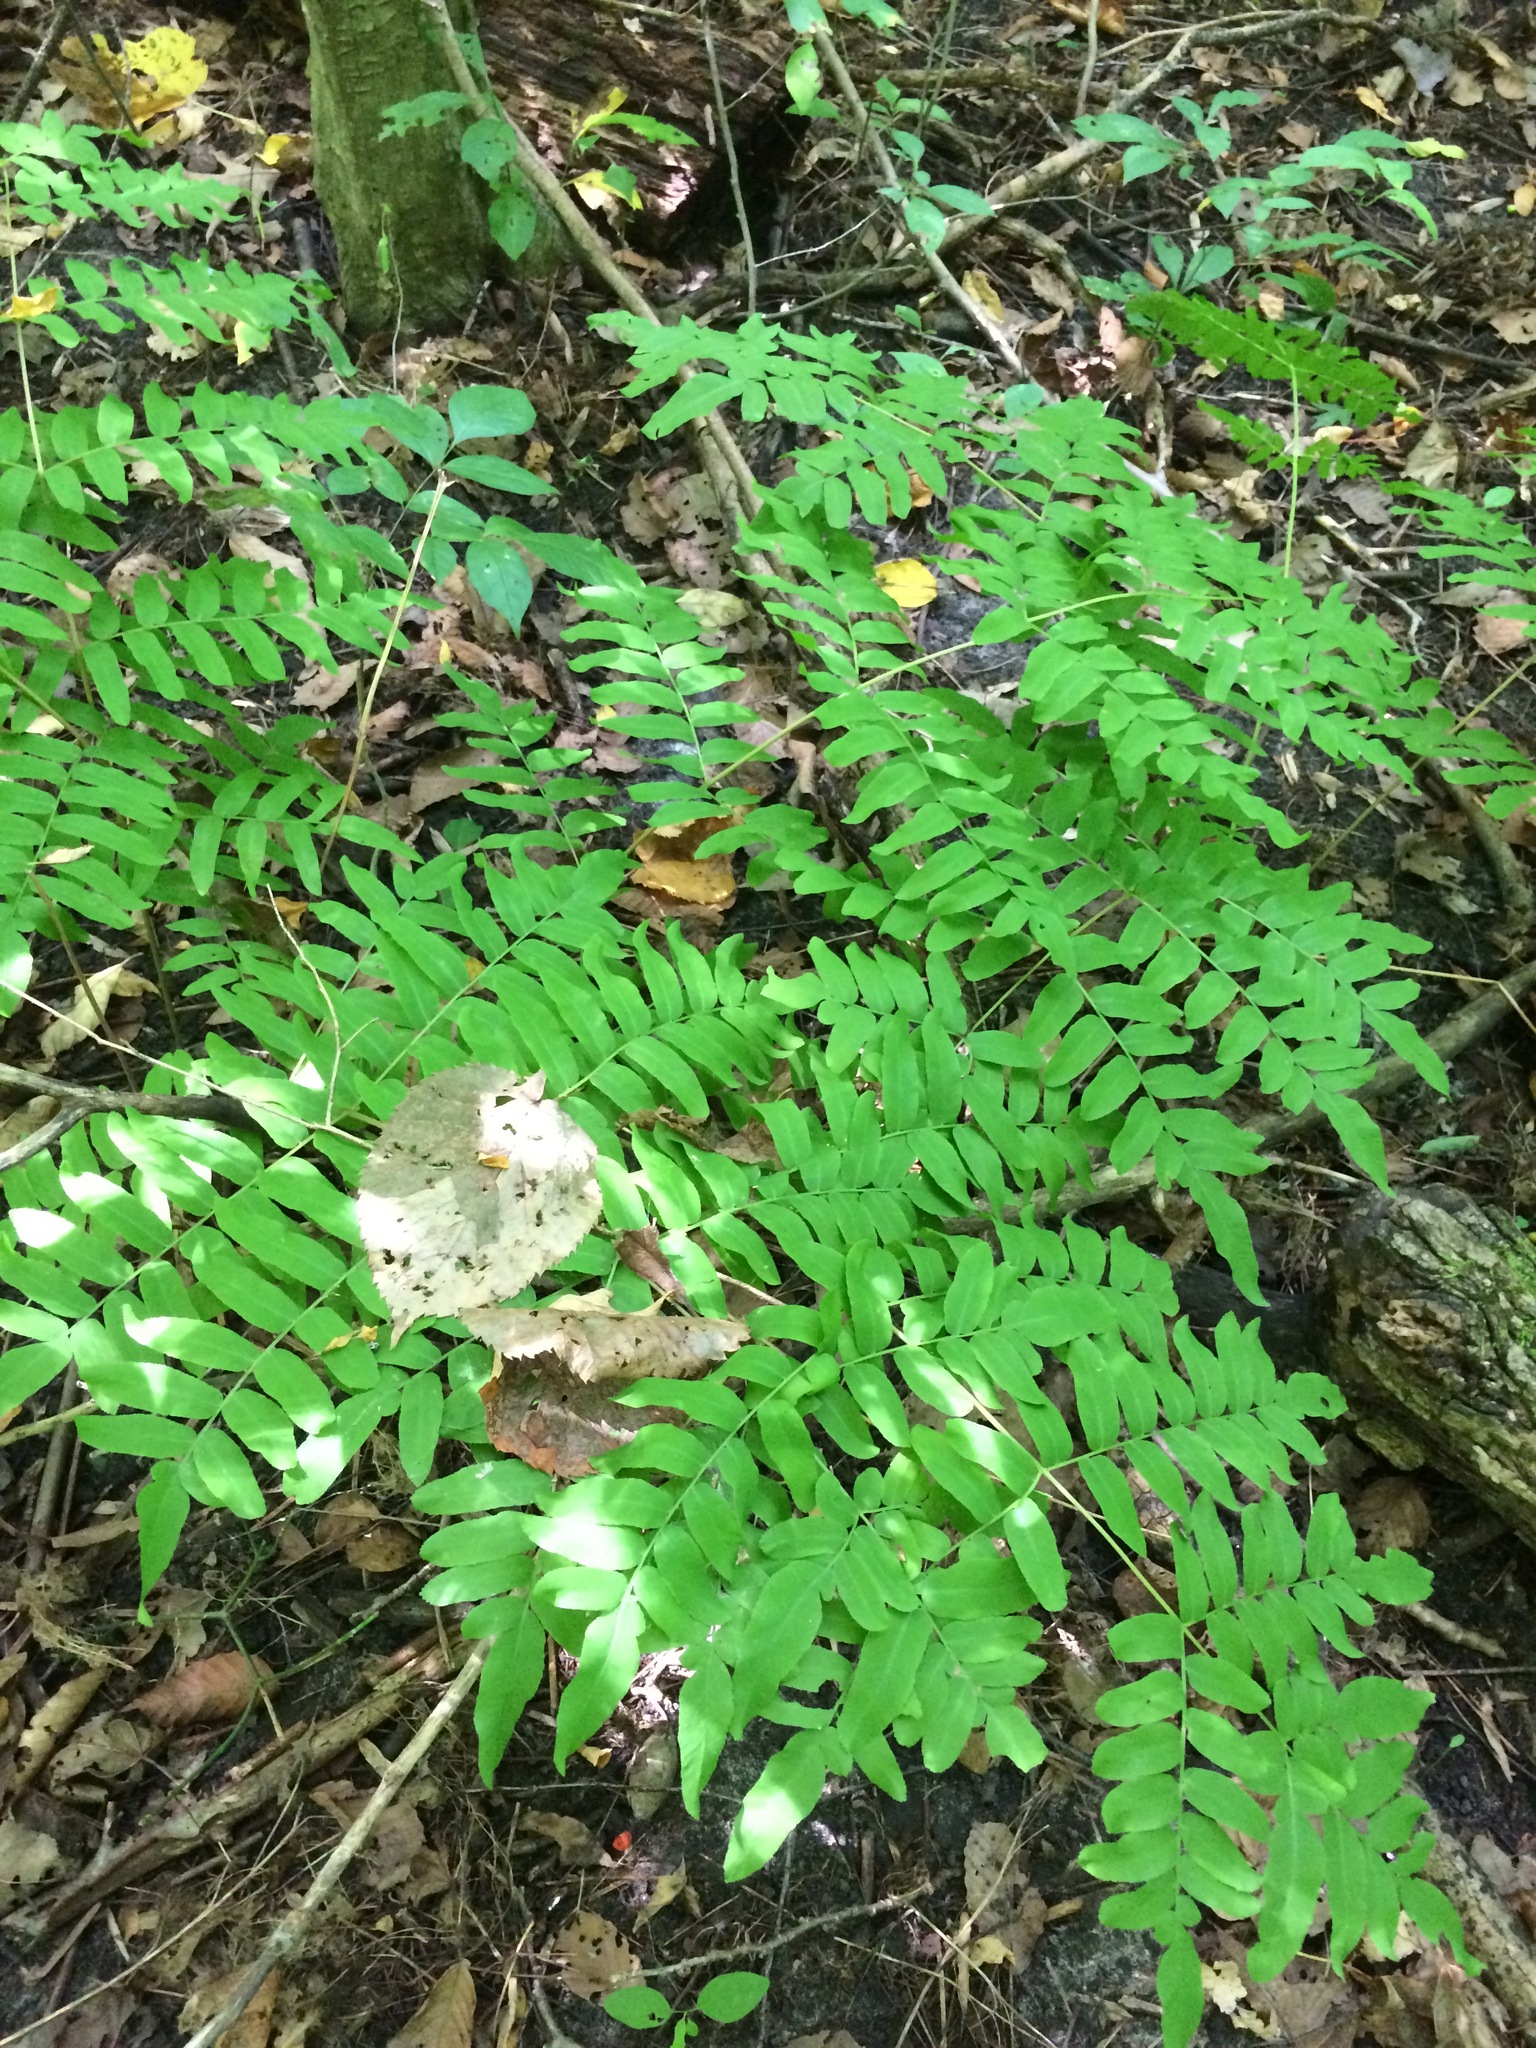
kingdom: Plantae
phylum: Tracheophyta
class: Polypodiopsida
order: Osmundales
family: Osmundaceae
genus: Osmunda
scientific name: Osmunda spectabilis
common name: American royal fern
